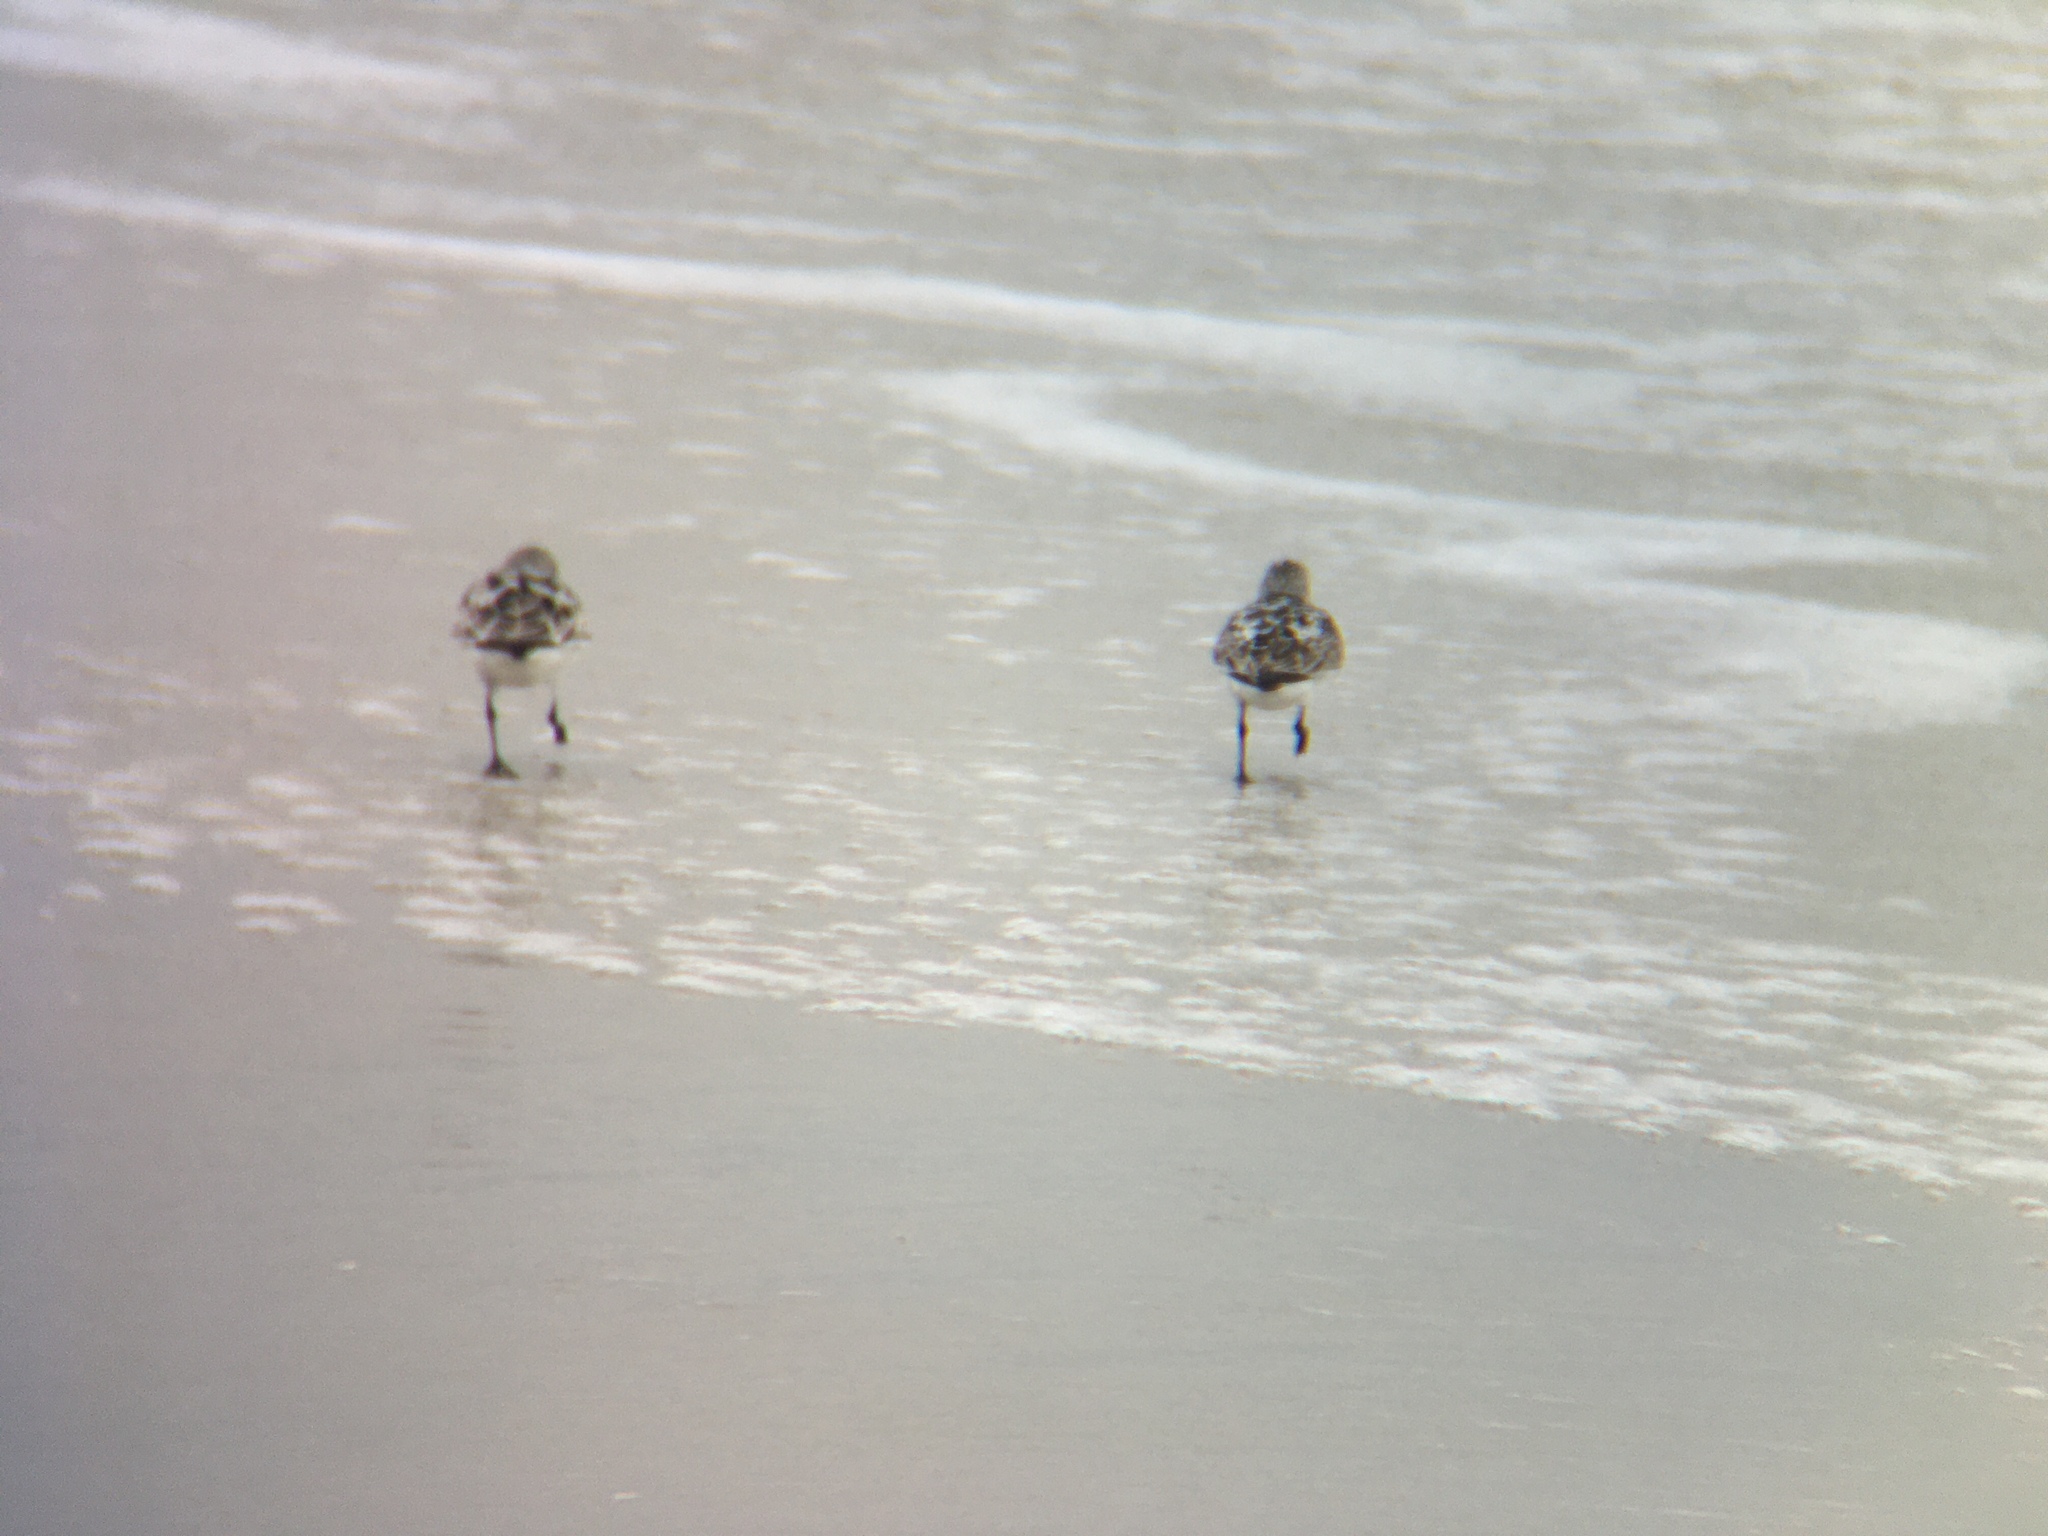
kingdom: Animalia
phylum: Chordata
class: Aves
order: Charadriiformes
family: Scolopacidae
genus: Calidris
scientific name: Calidris alba
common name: Sanderling
